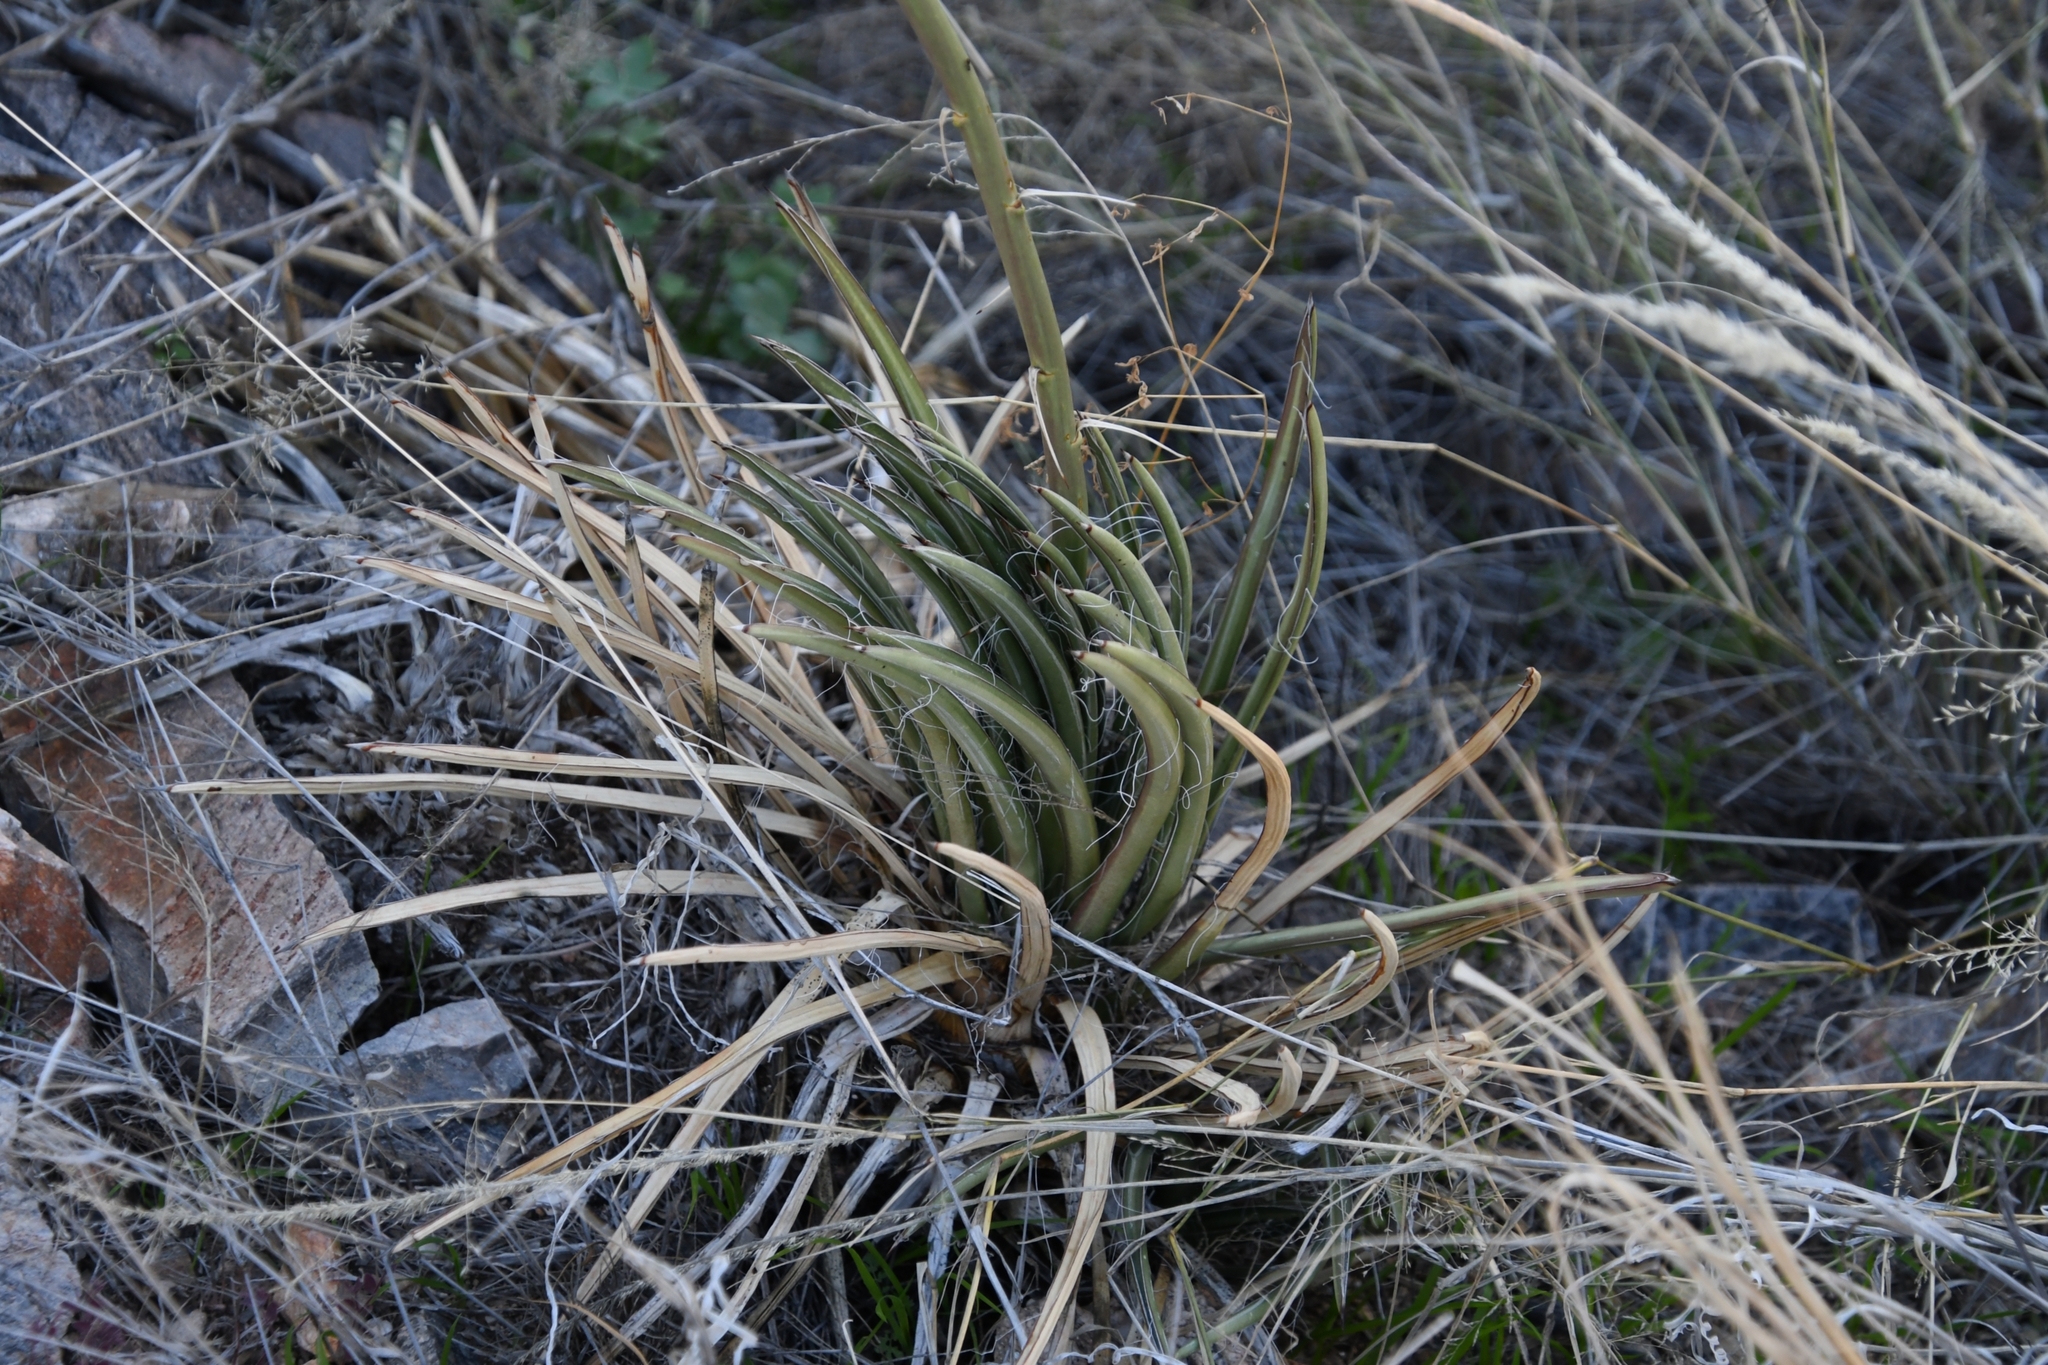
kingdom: Plantae
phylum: Tracheophyta
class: Liliopsida
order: Asparagales
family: Asparagaceae
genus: Agave
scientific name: Agave schottii
